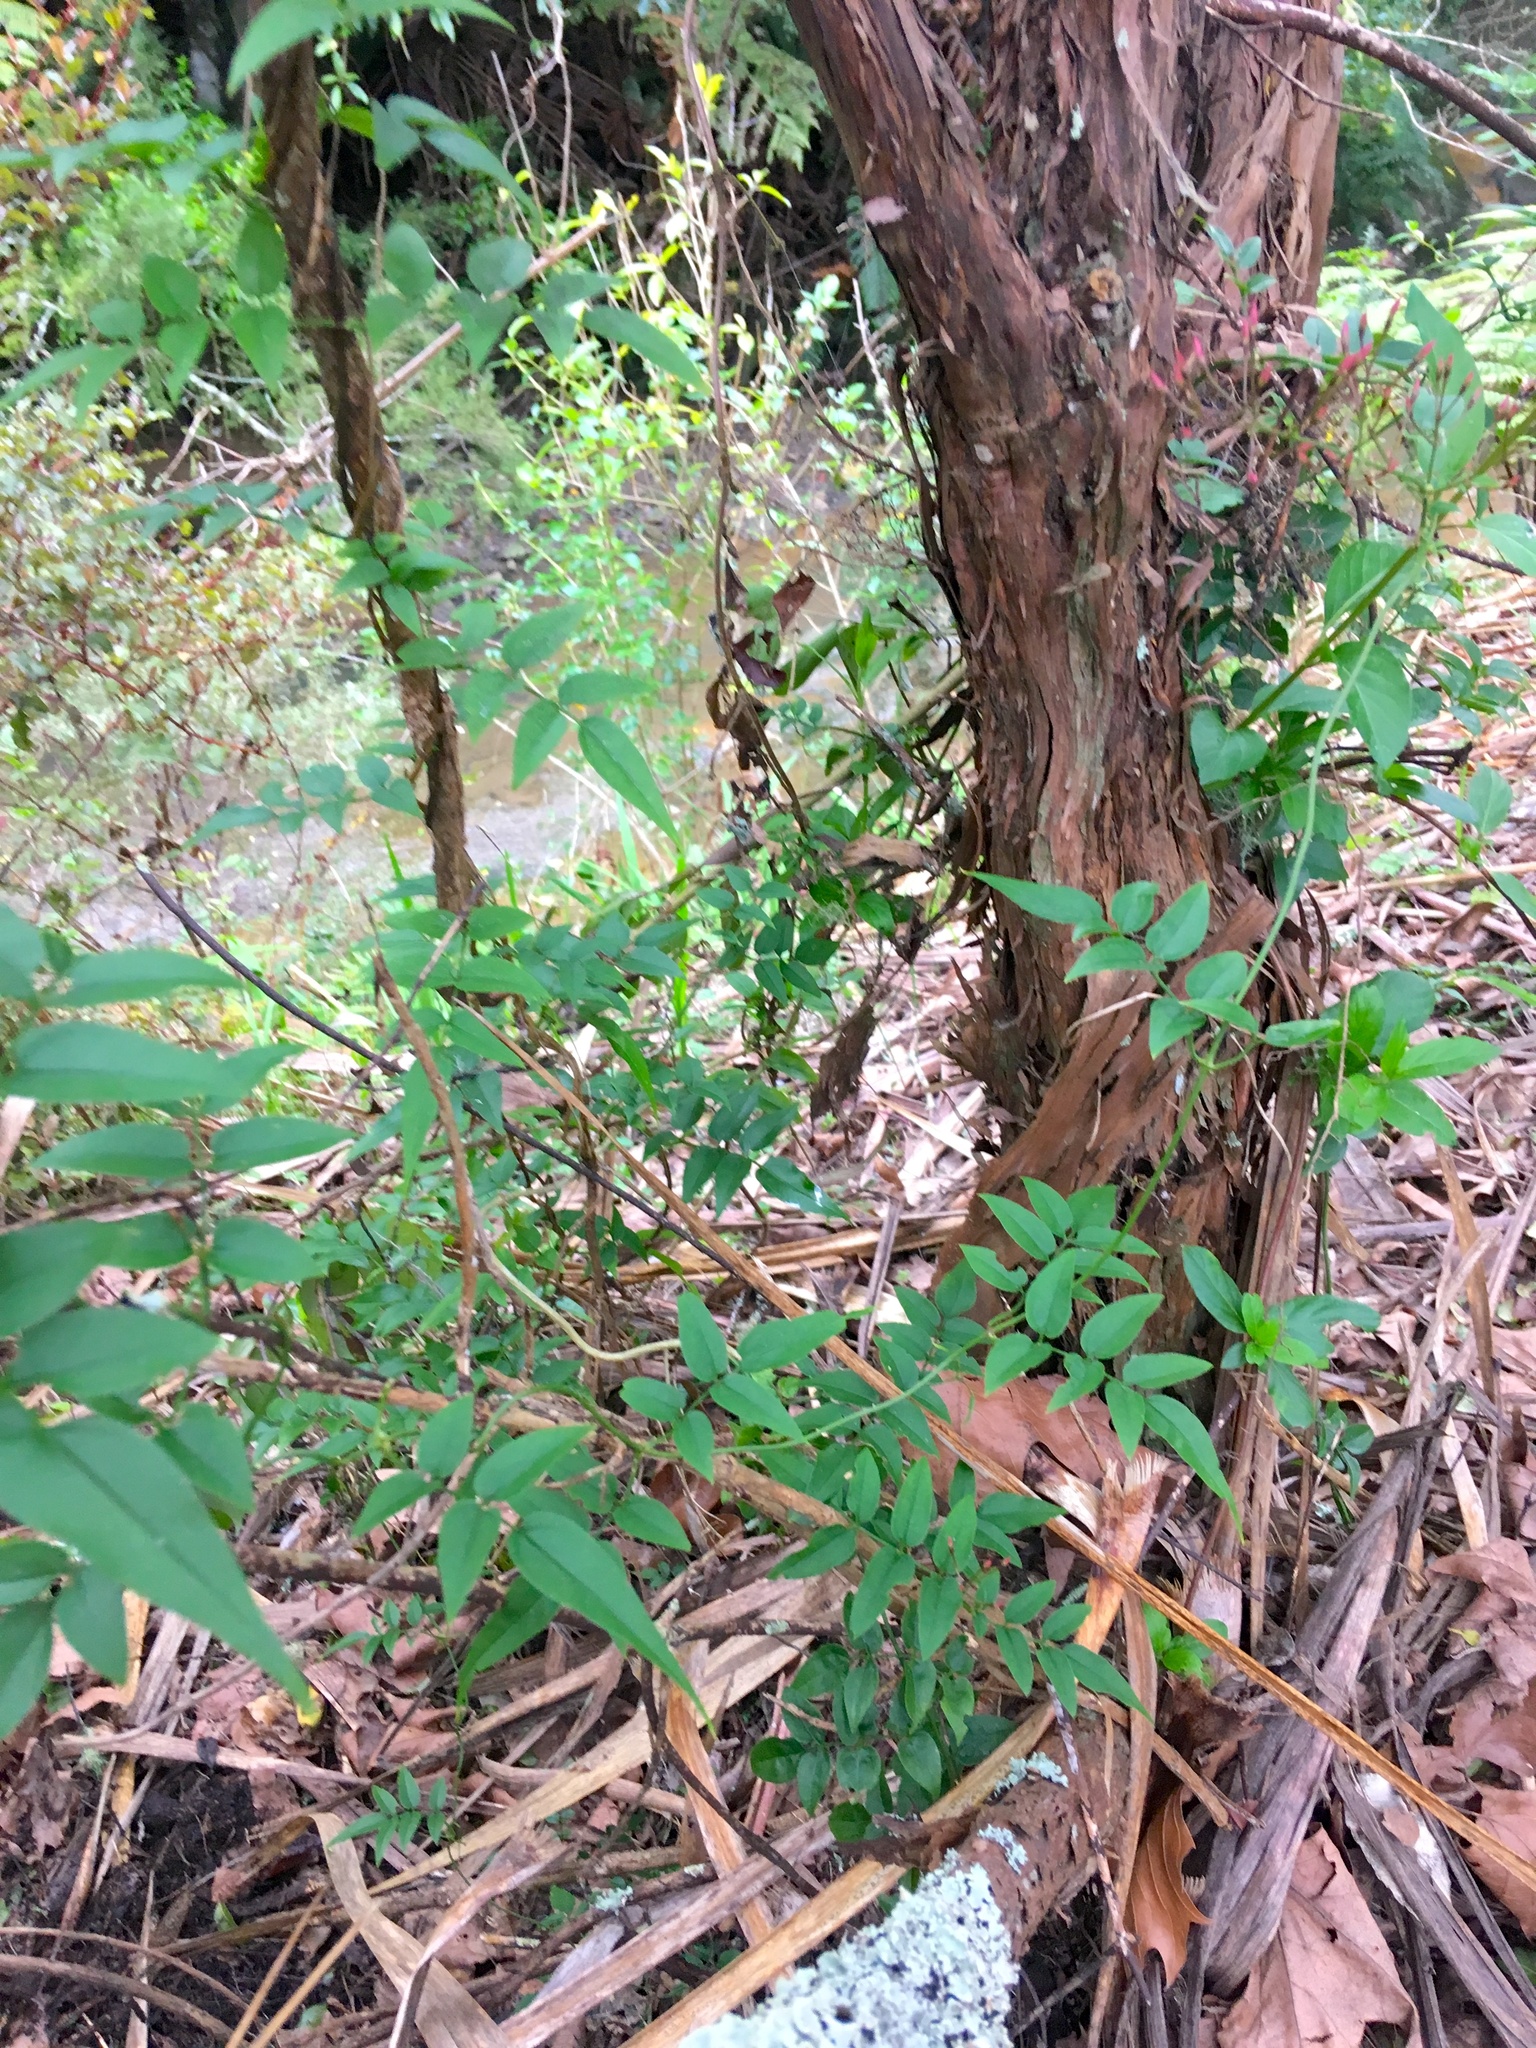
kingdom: Plantae
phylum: Tracheophyta
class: Magnoliopsida
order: Lamiales
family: Oleaceae
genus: Jasminum
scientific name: Jasminum polyanthum
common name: Pink jasmine
